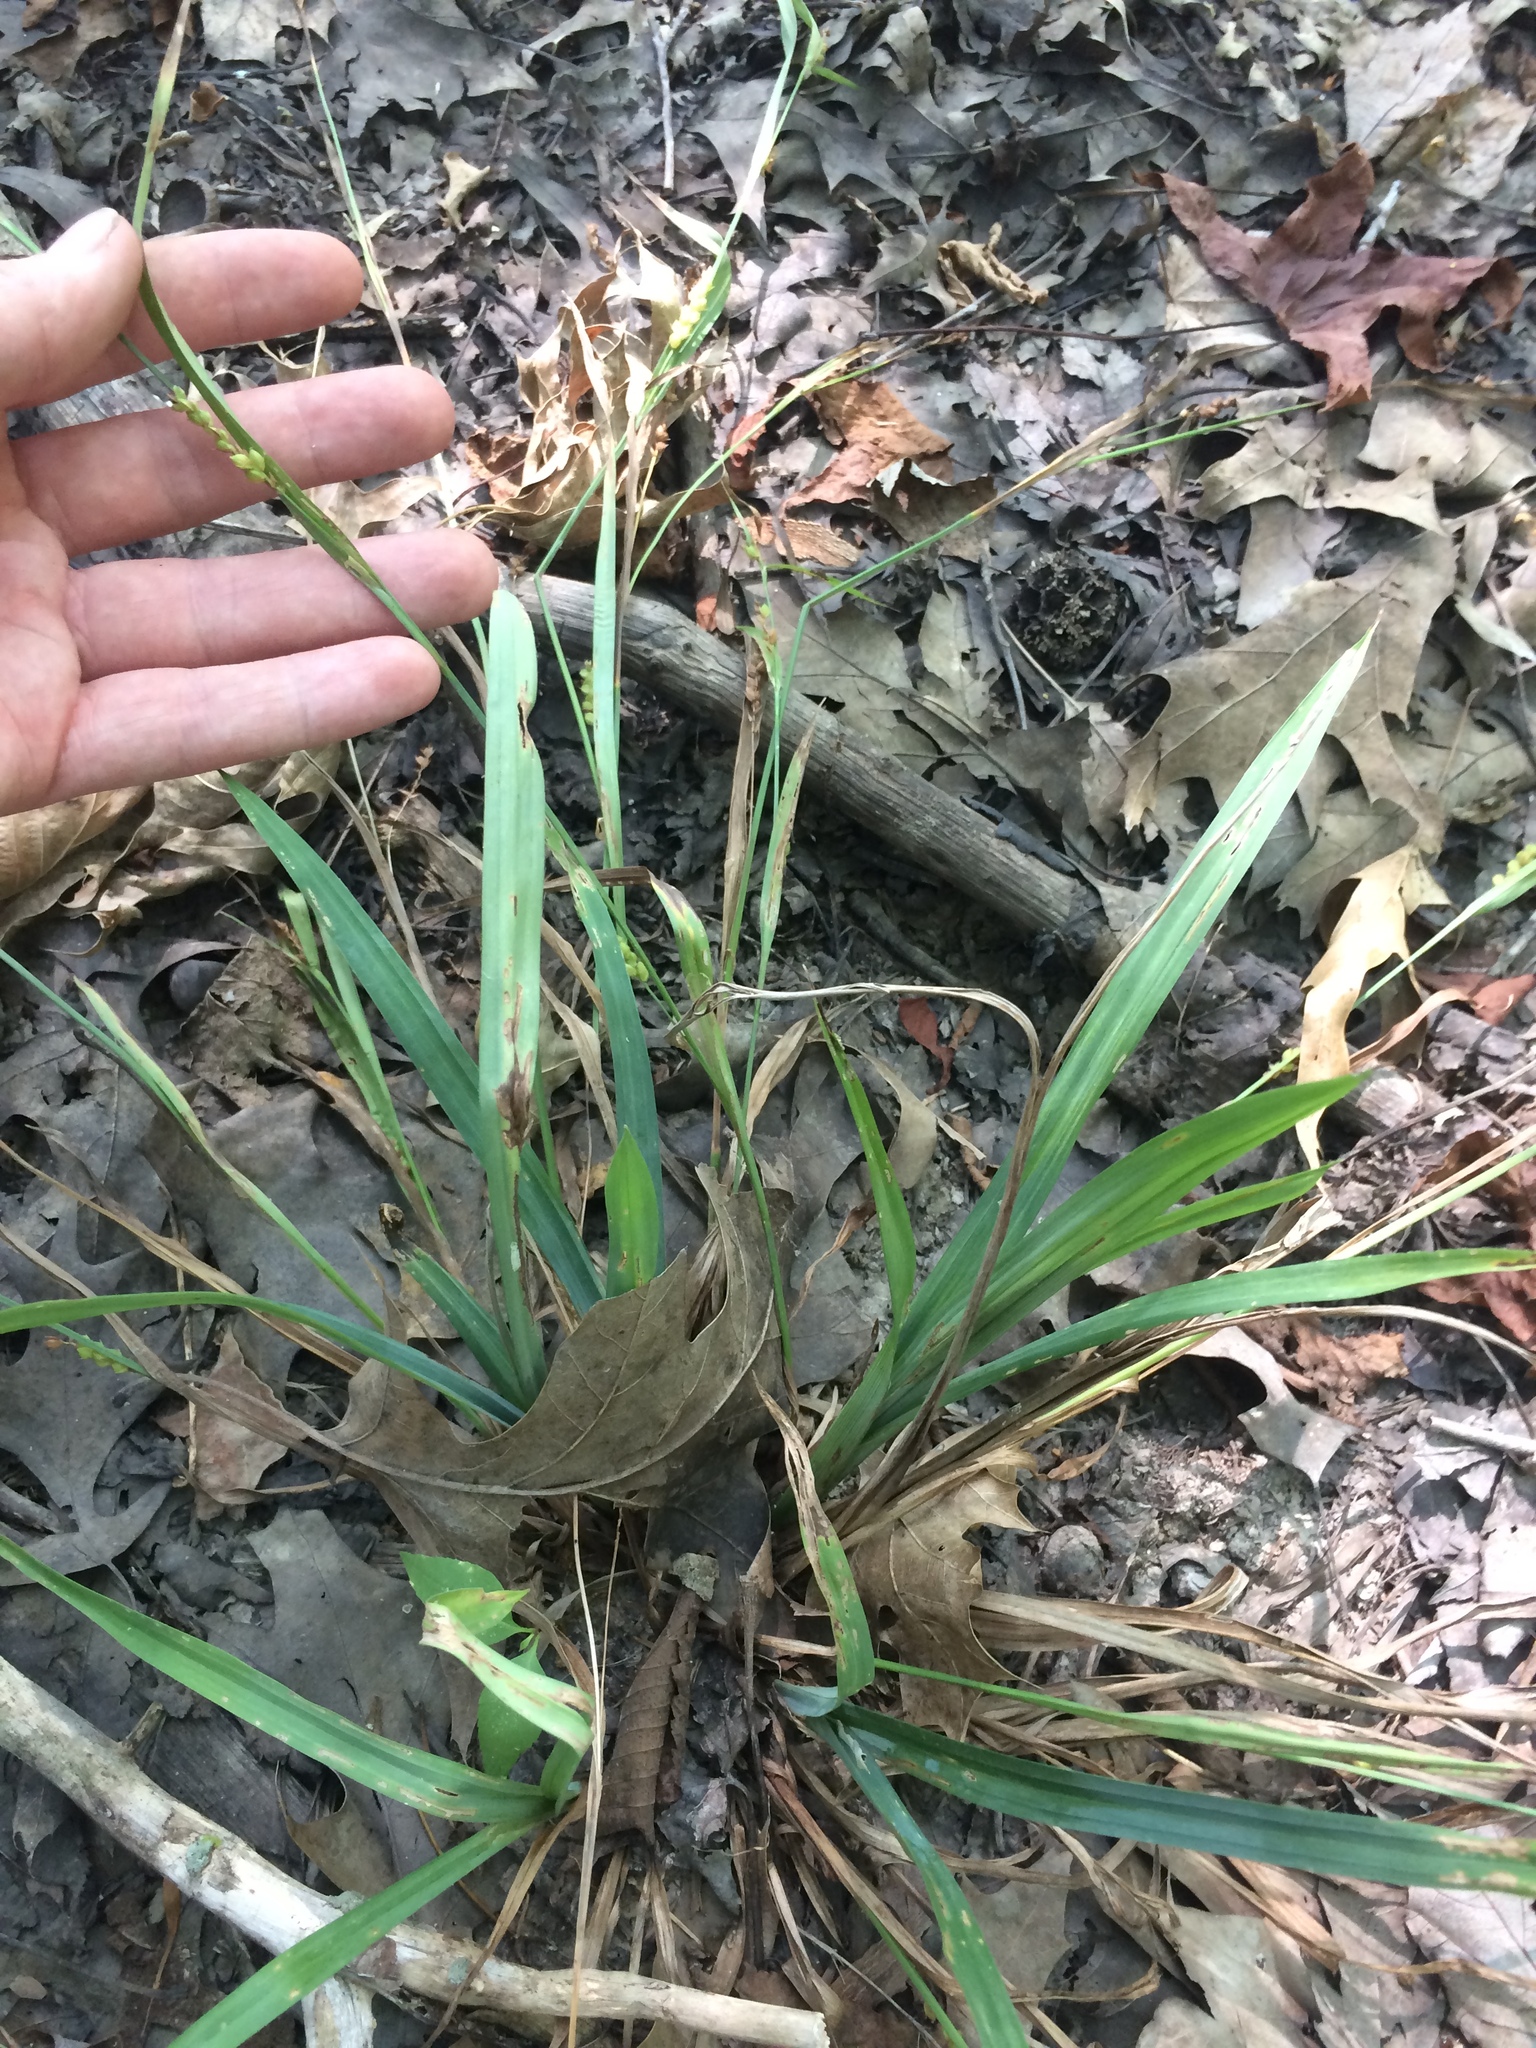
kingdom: Plantae
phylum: Tracheophyta
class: Liliopsida
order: Poales
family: Cyperaceae
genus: Carex
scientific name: Carex glaucodea
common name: Blue sedge
